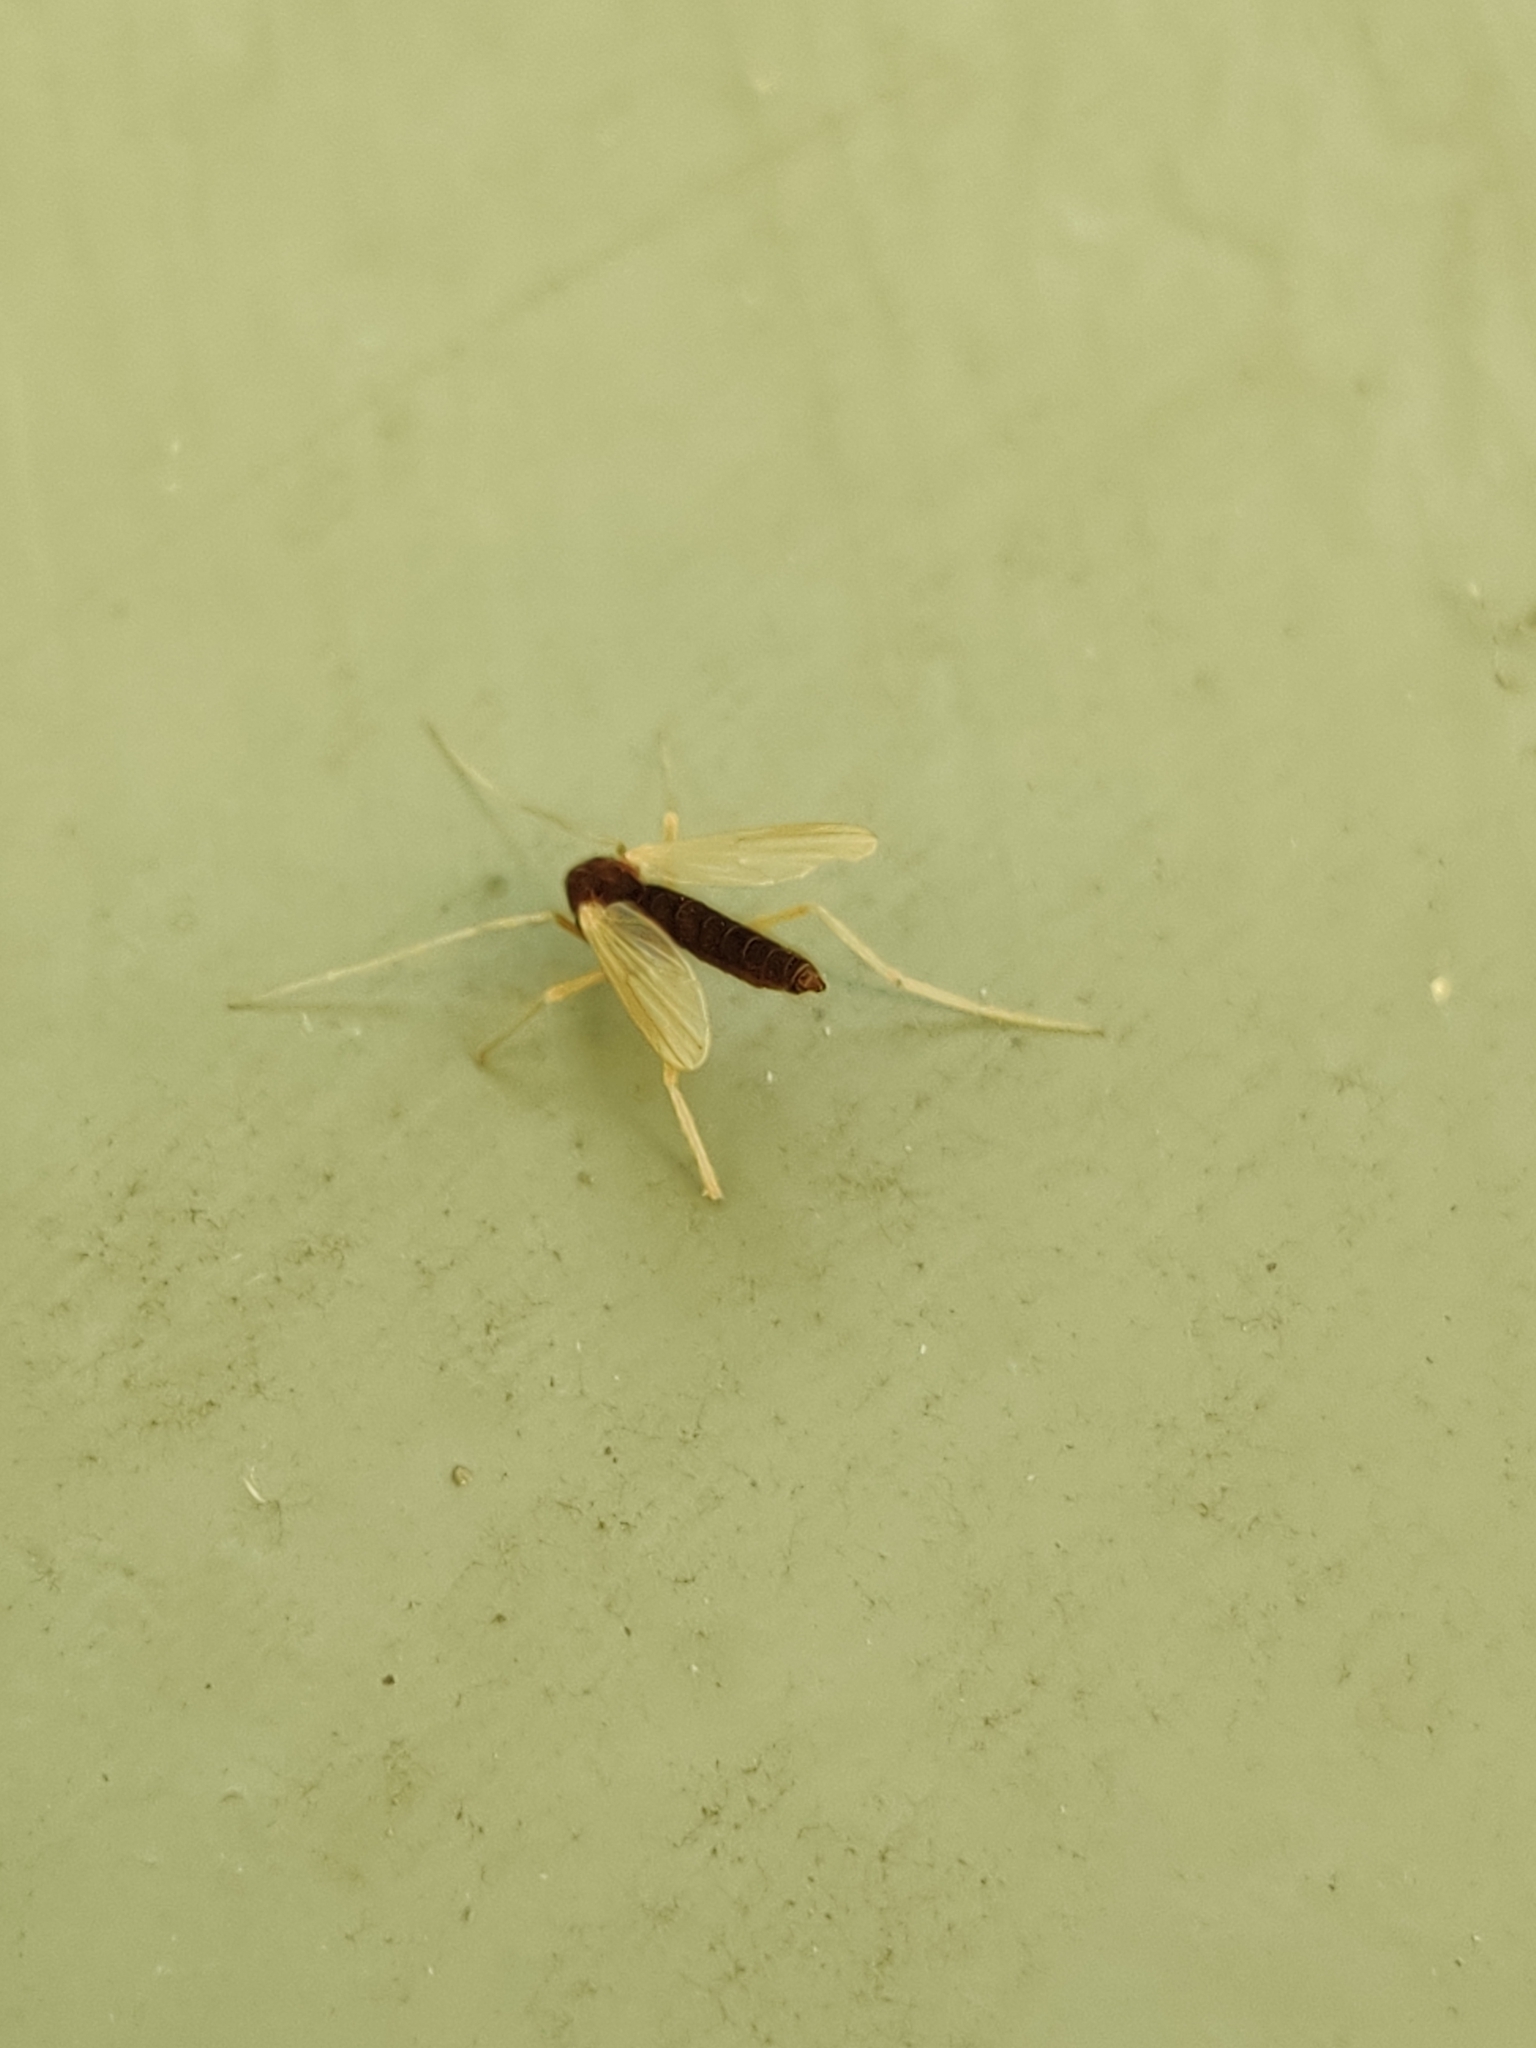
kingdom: Animalia
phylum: Arthropoda
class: Insecta
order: Diptera
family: Chironomidae
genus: Hyporhygma
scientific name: Hyporhygma quadripunctatus
